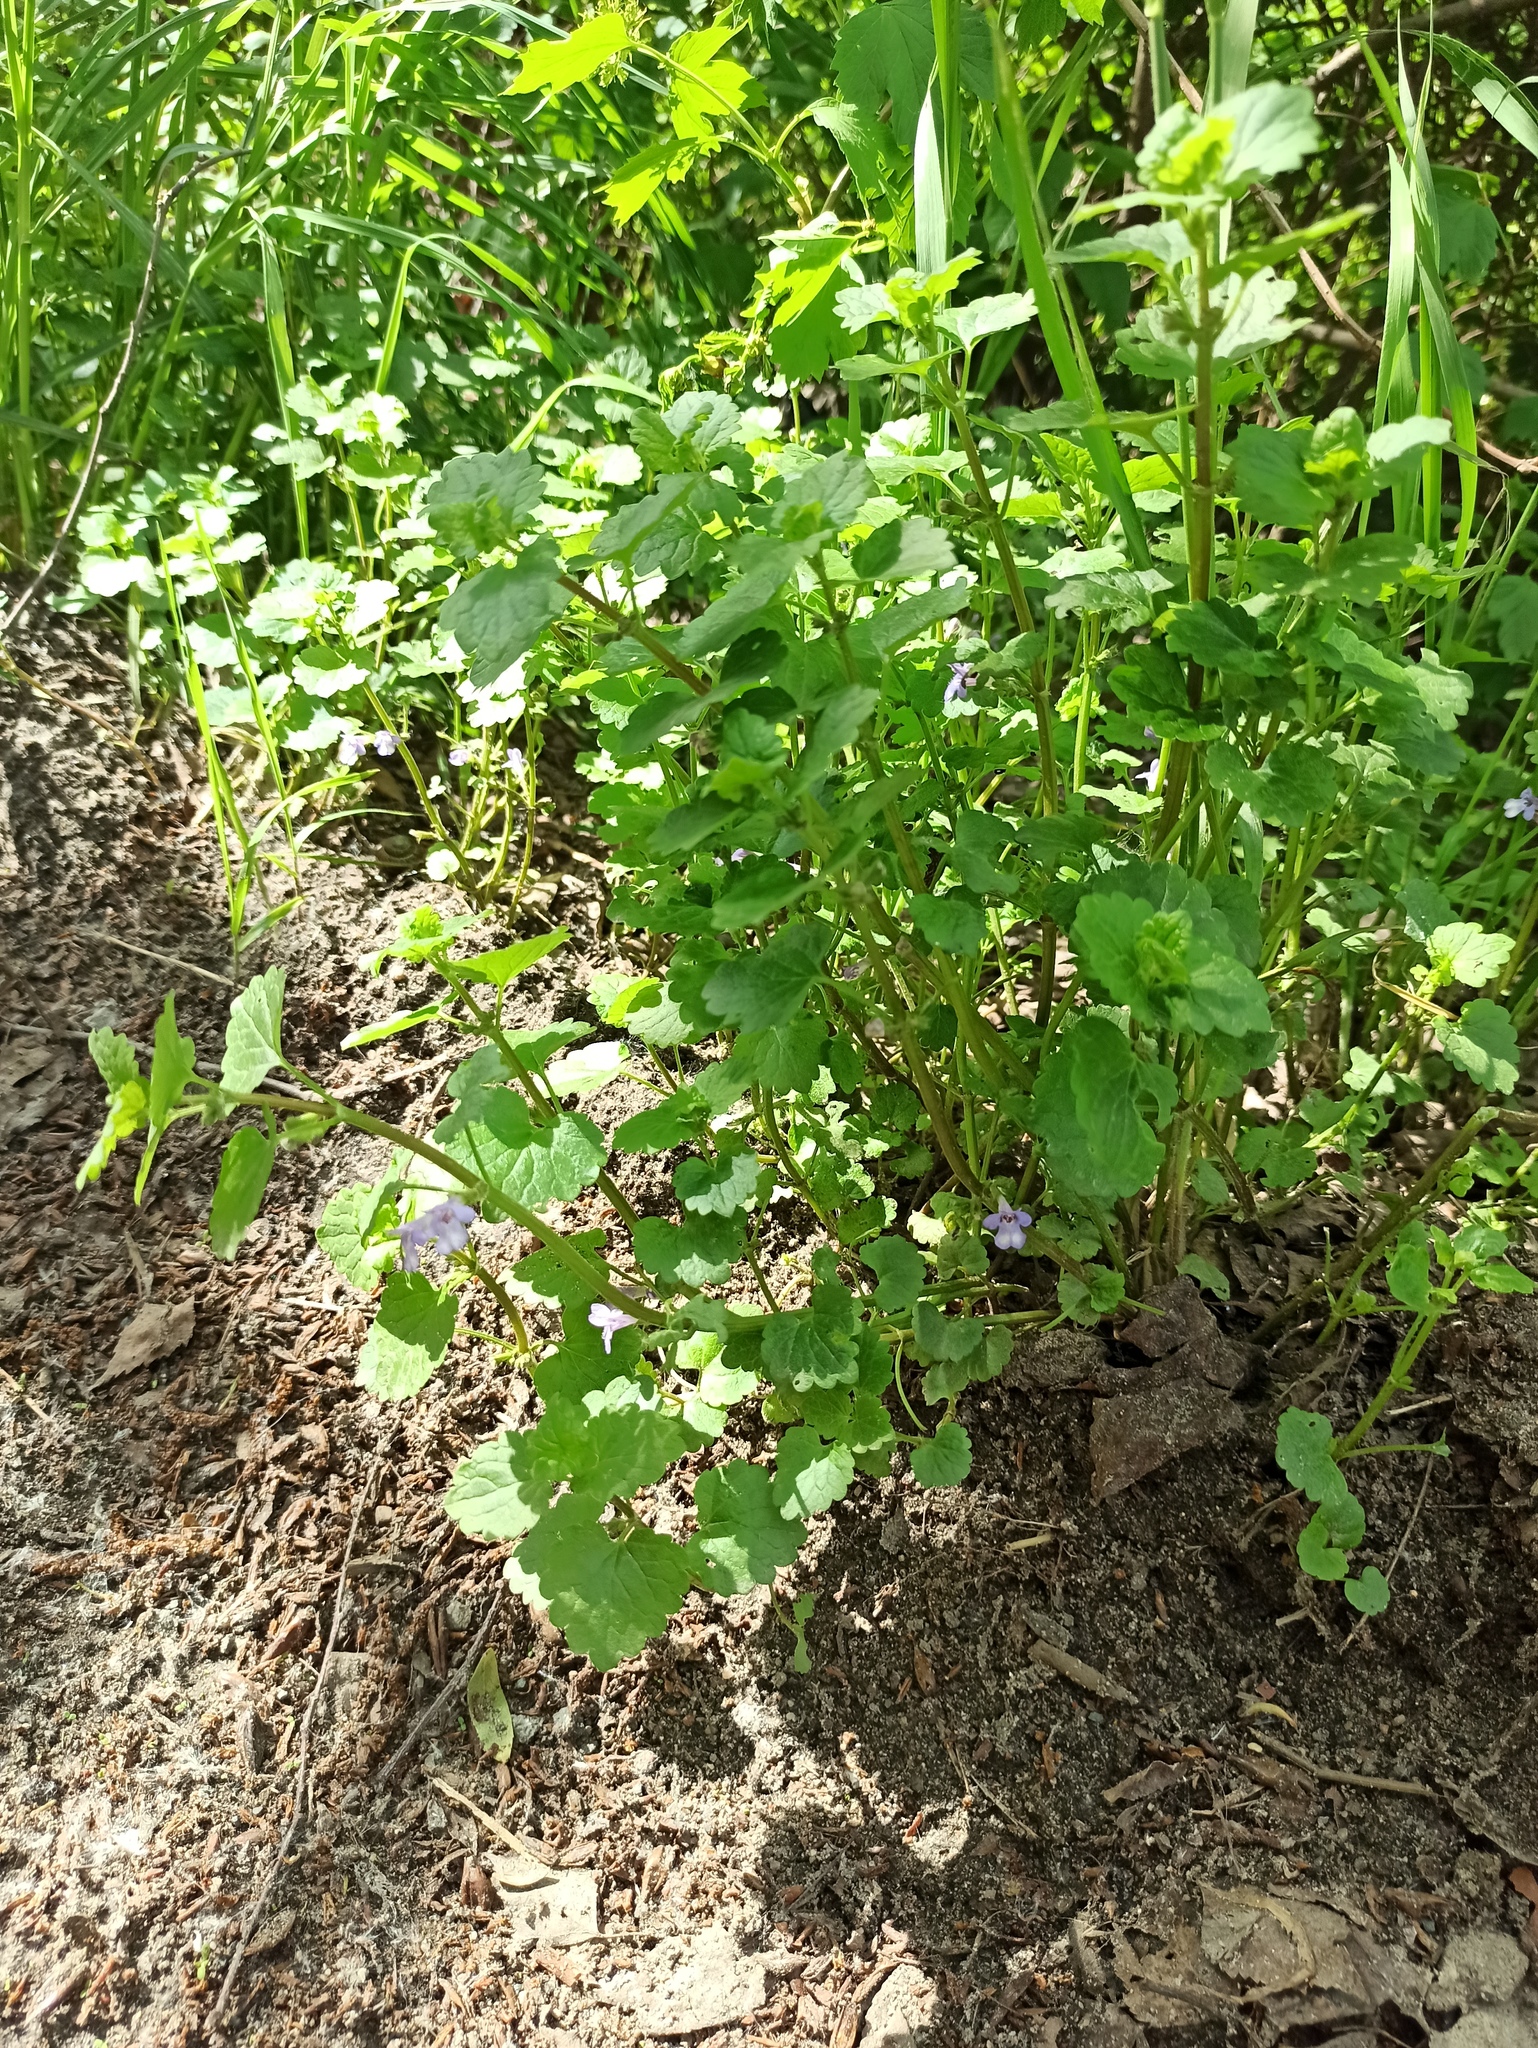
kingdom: Plantae
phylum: Tracheophyta
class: Magnoliopsida
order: Lamiales
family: Lamiaceae
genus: Glechoma
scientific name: Glechoma hederacea
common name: Ground ivy
